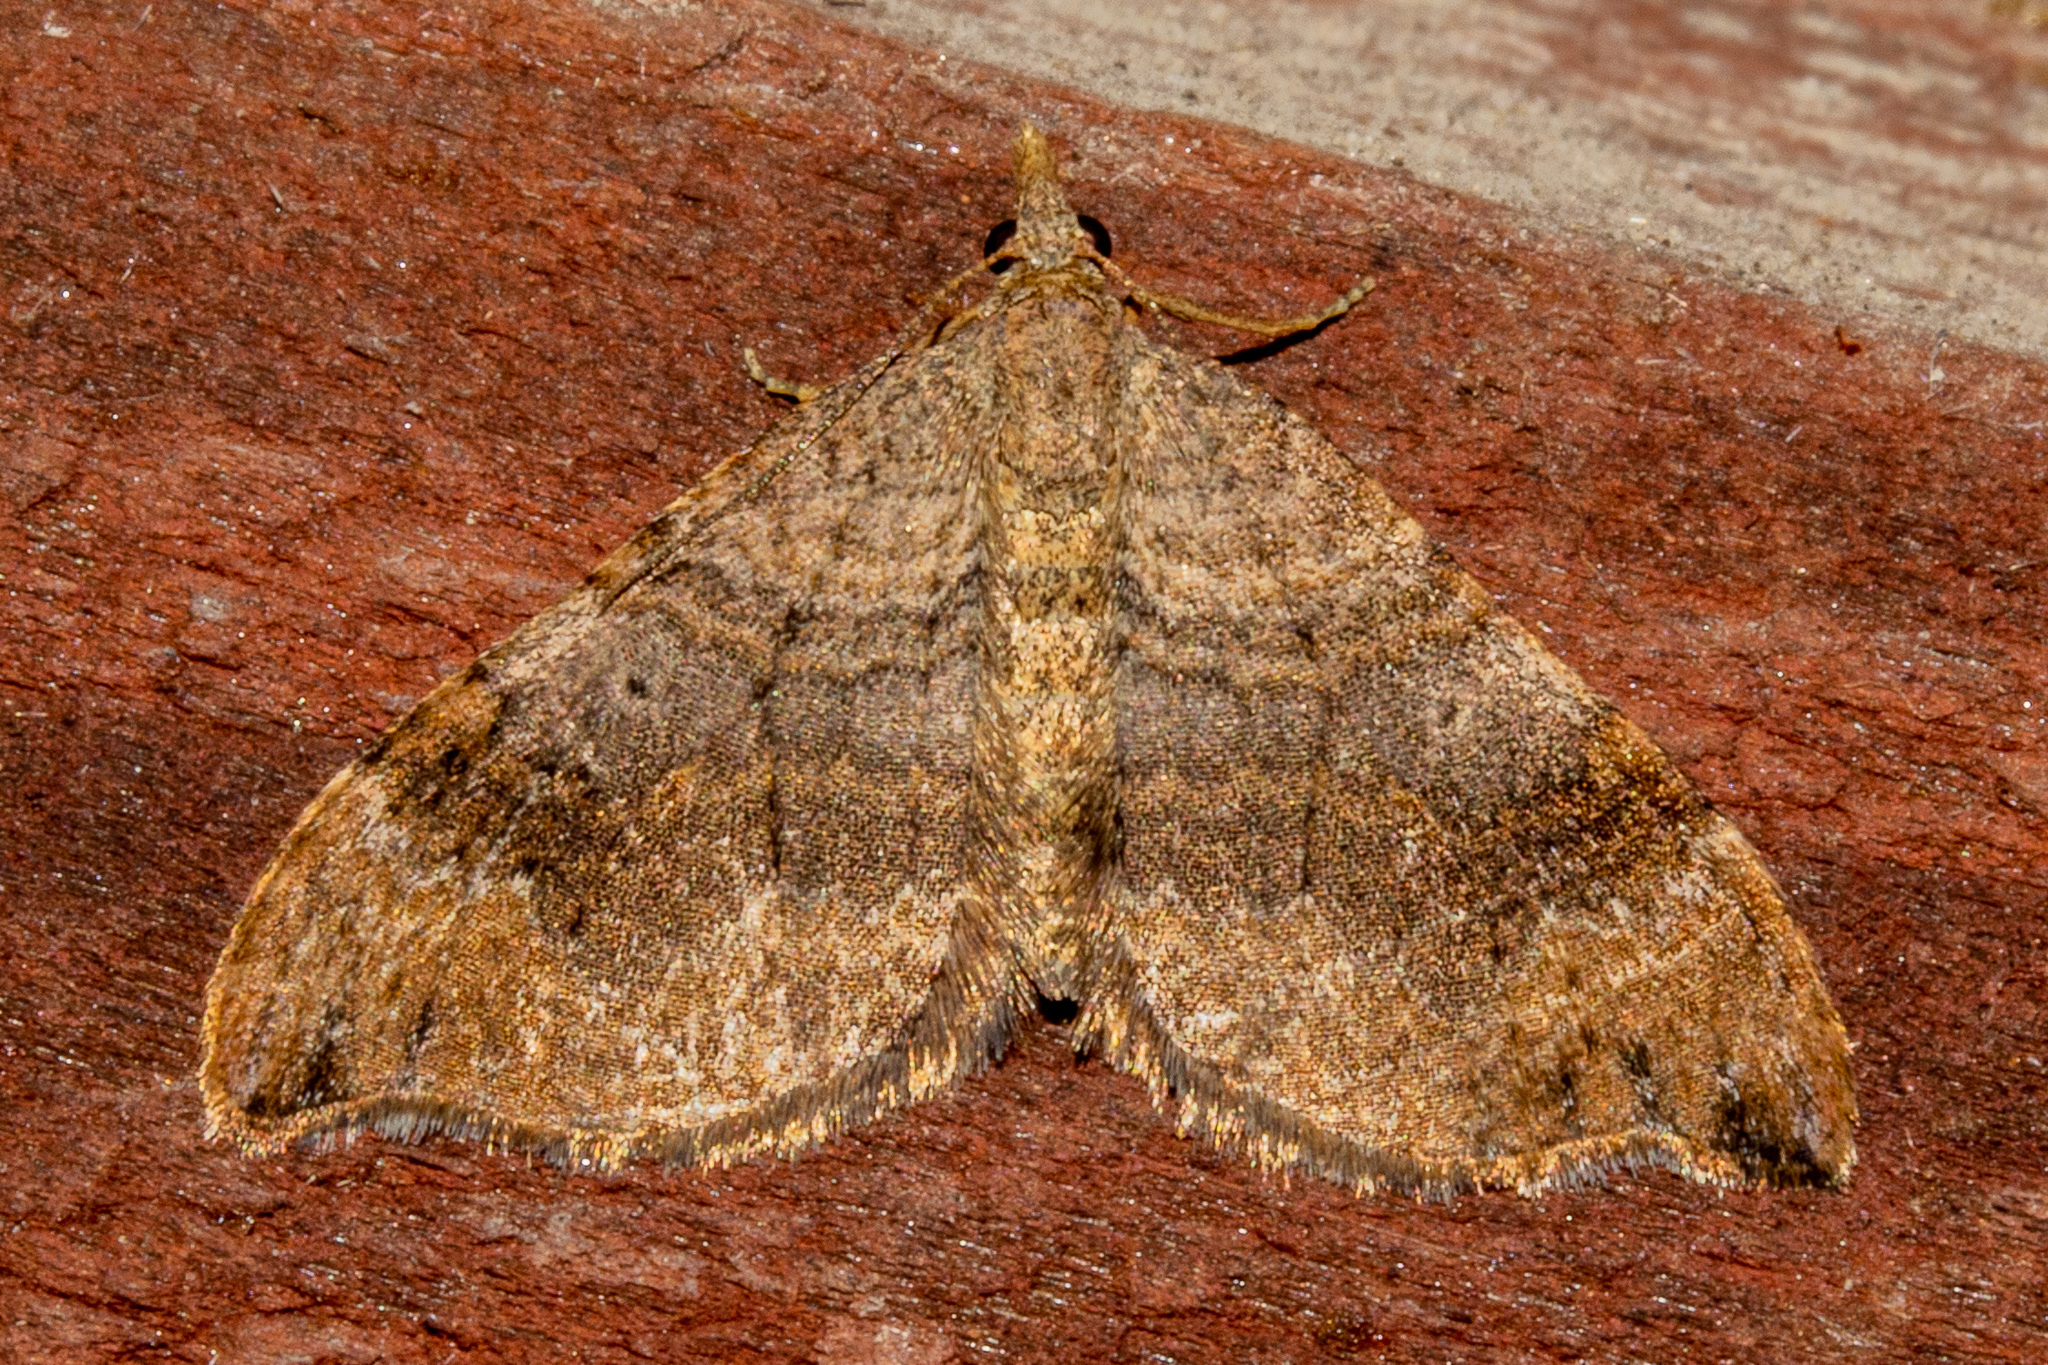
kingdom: Animalia
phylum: Arthropoda
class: Insecta
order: Lepidoptera
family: Geometridae
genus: Homodotis
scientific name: Homodotis megaspilata
